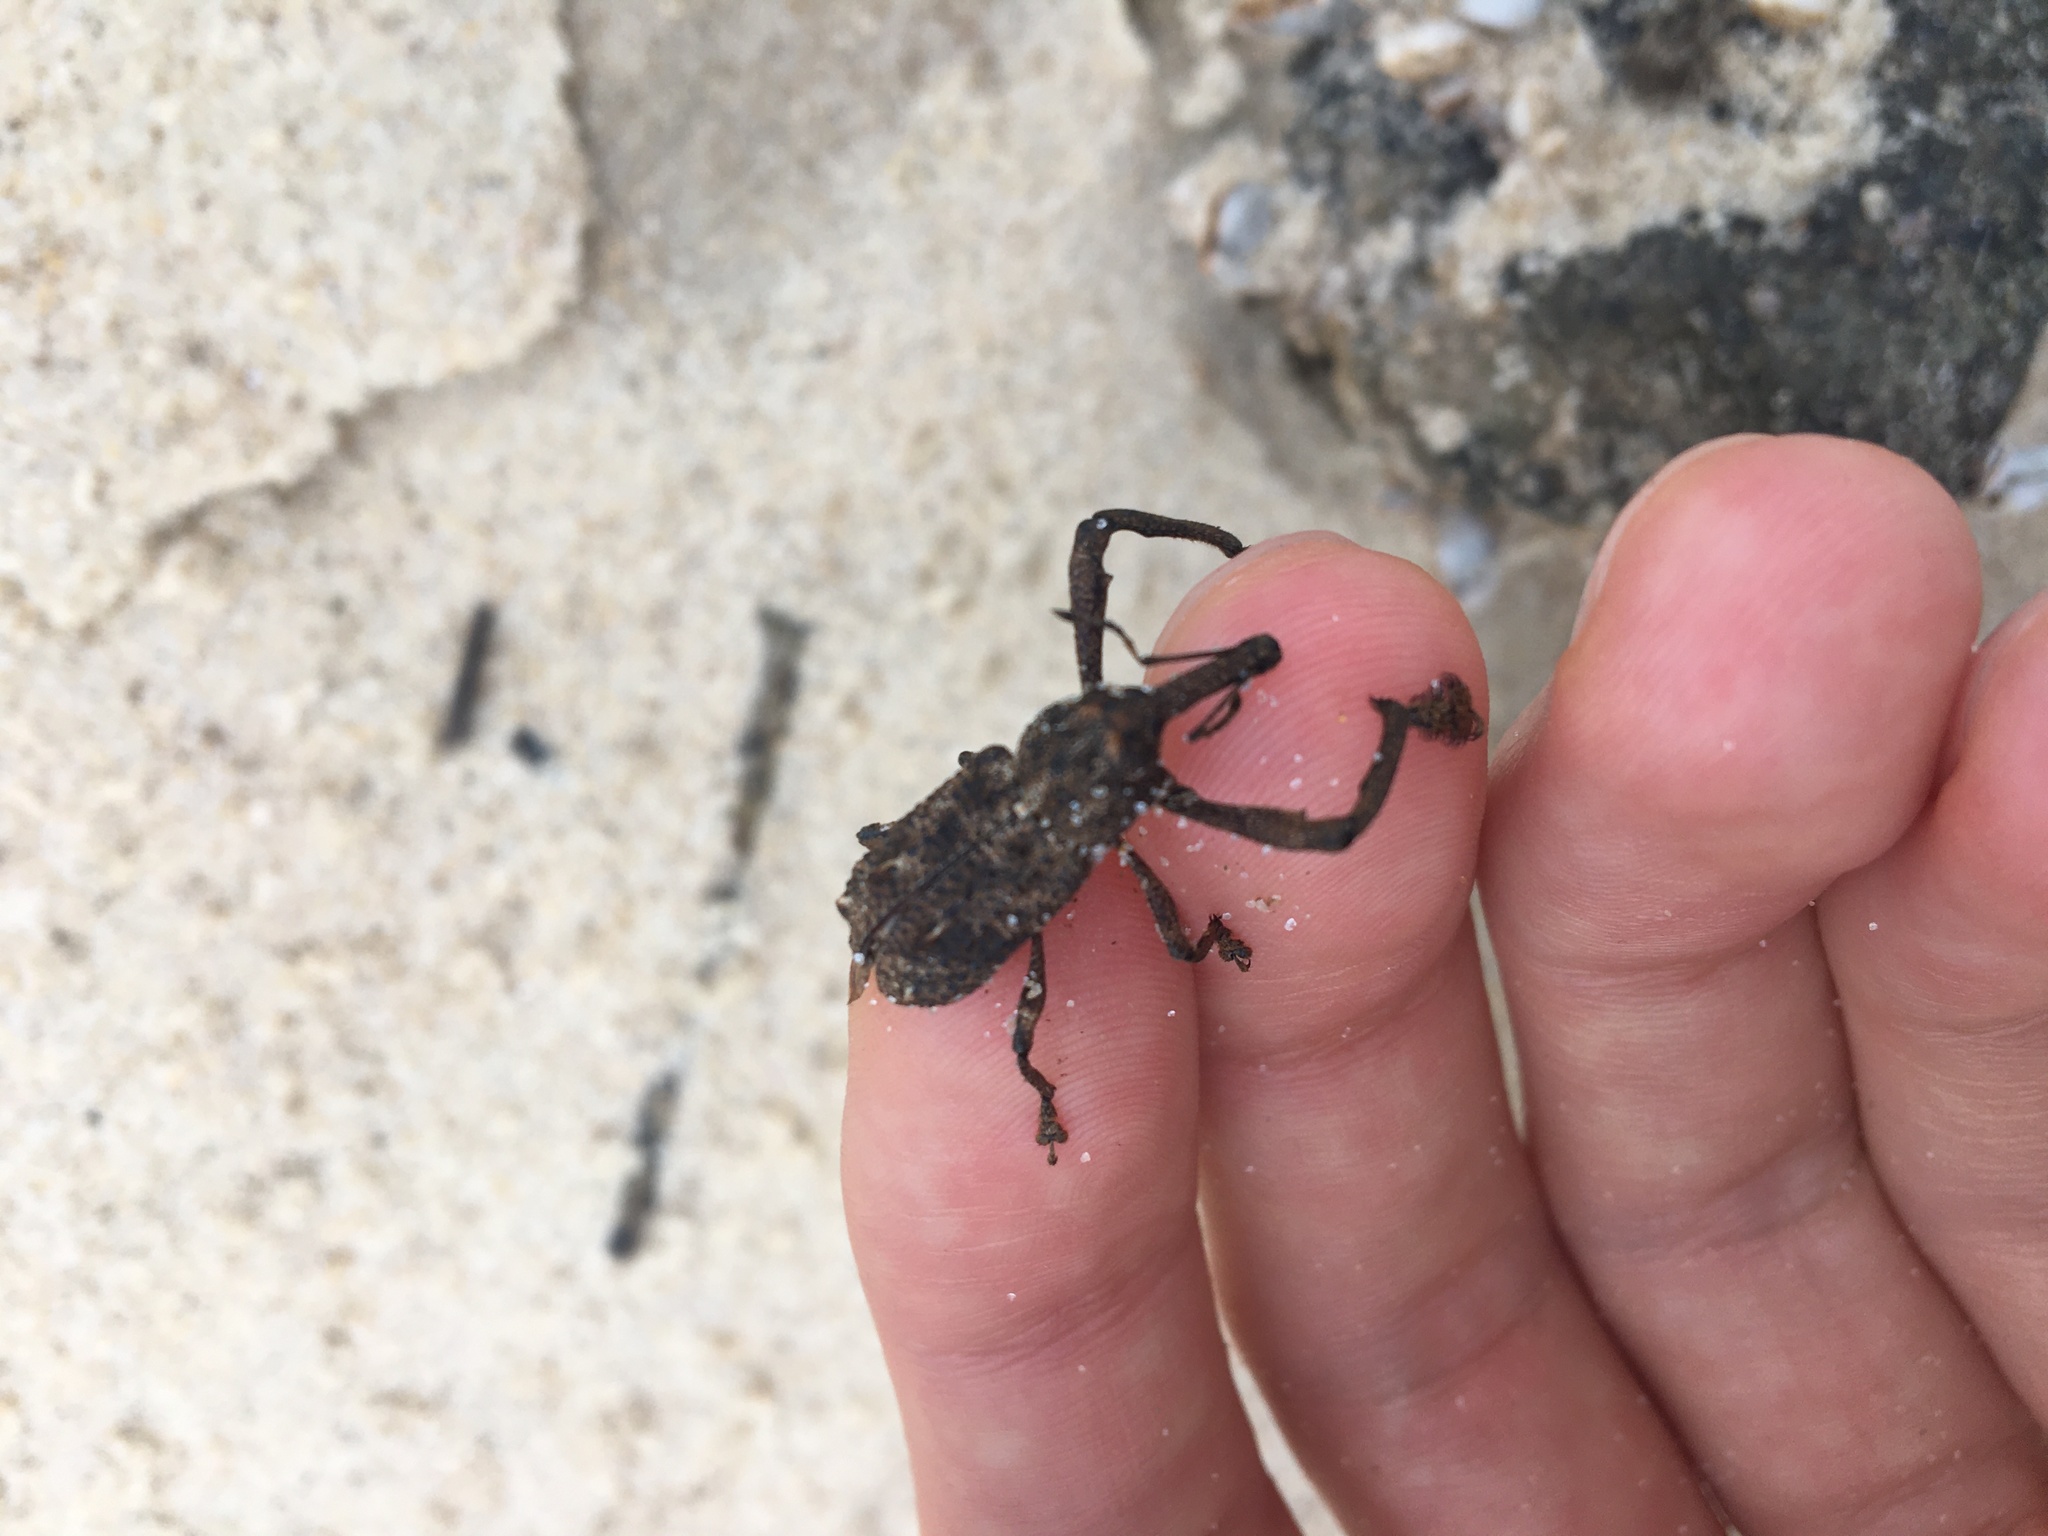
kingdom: Animalia
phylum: Arthropoda
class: Insecta
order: Coleoptera
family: Curculionidae
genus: Orthorhinus
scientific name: Orthorhinus cylindrirostris
